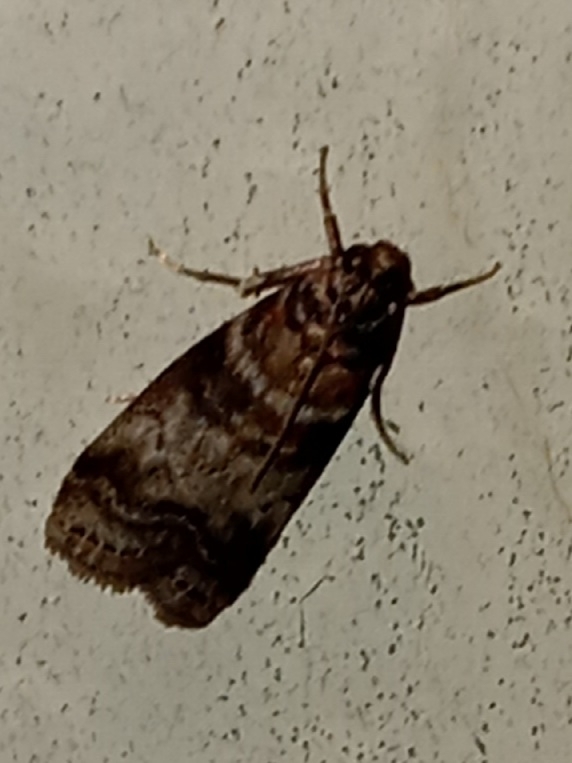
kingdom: Animalia
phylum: Arthropoda
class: Insecta
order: Lepidoptera
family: Pyralidae
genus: Sciota
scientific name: Sciota uvinella
